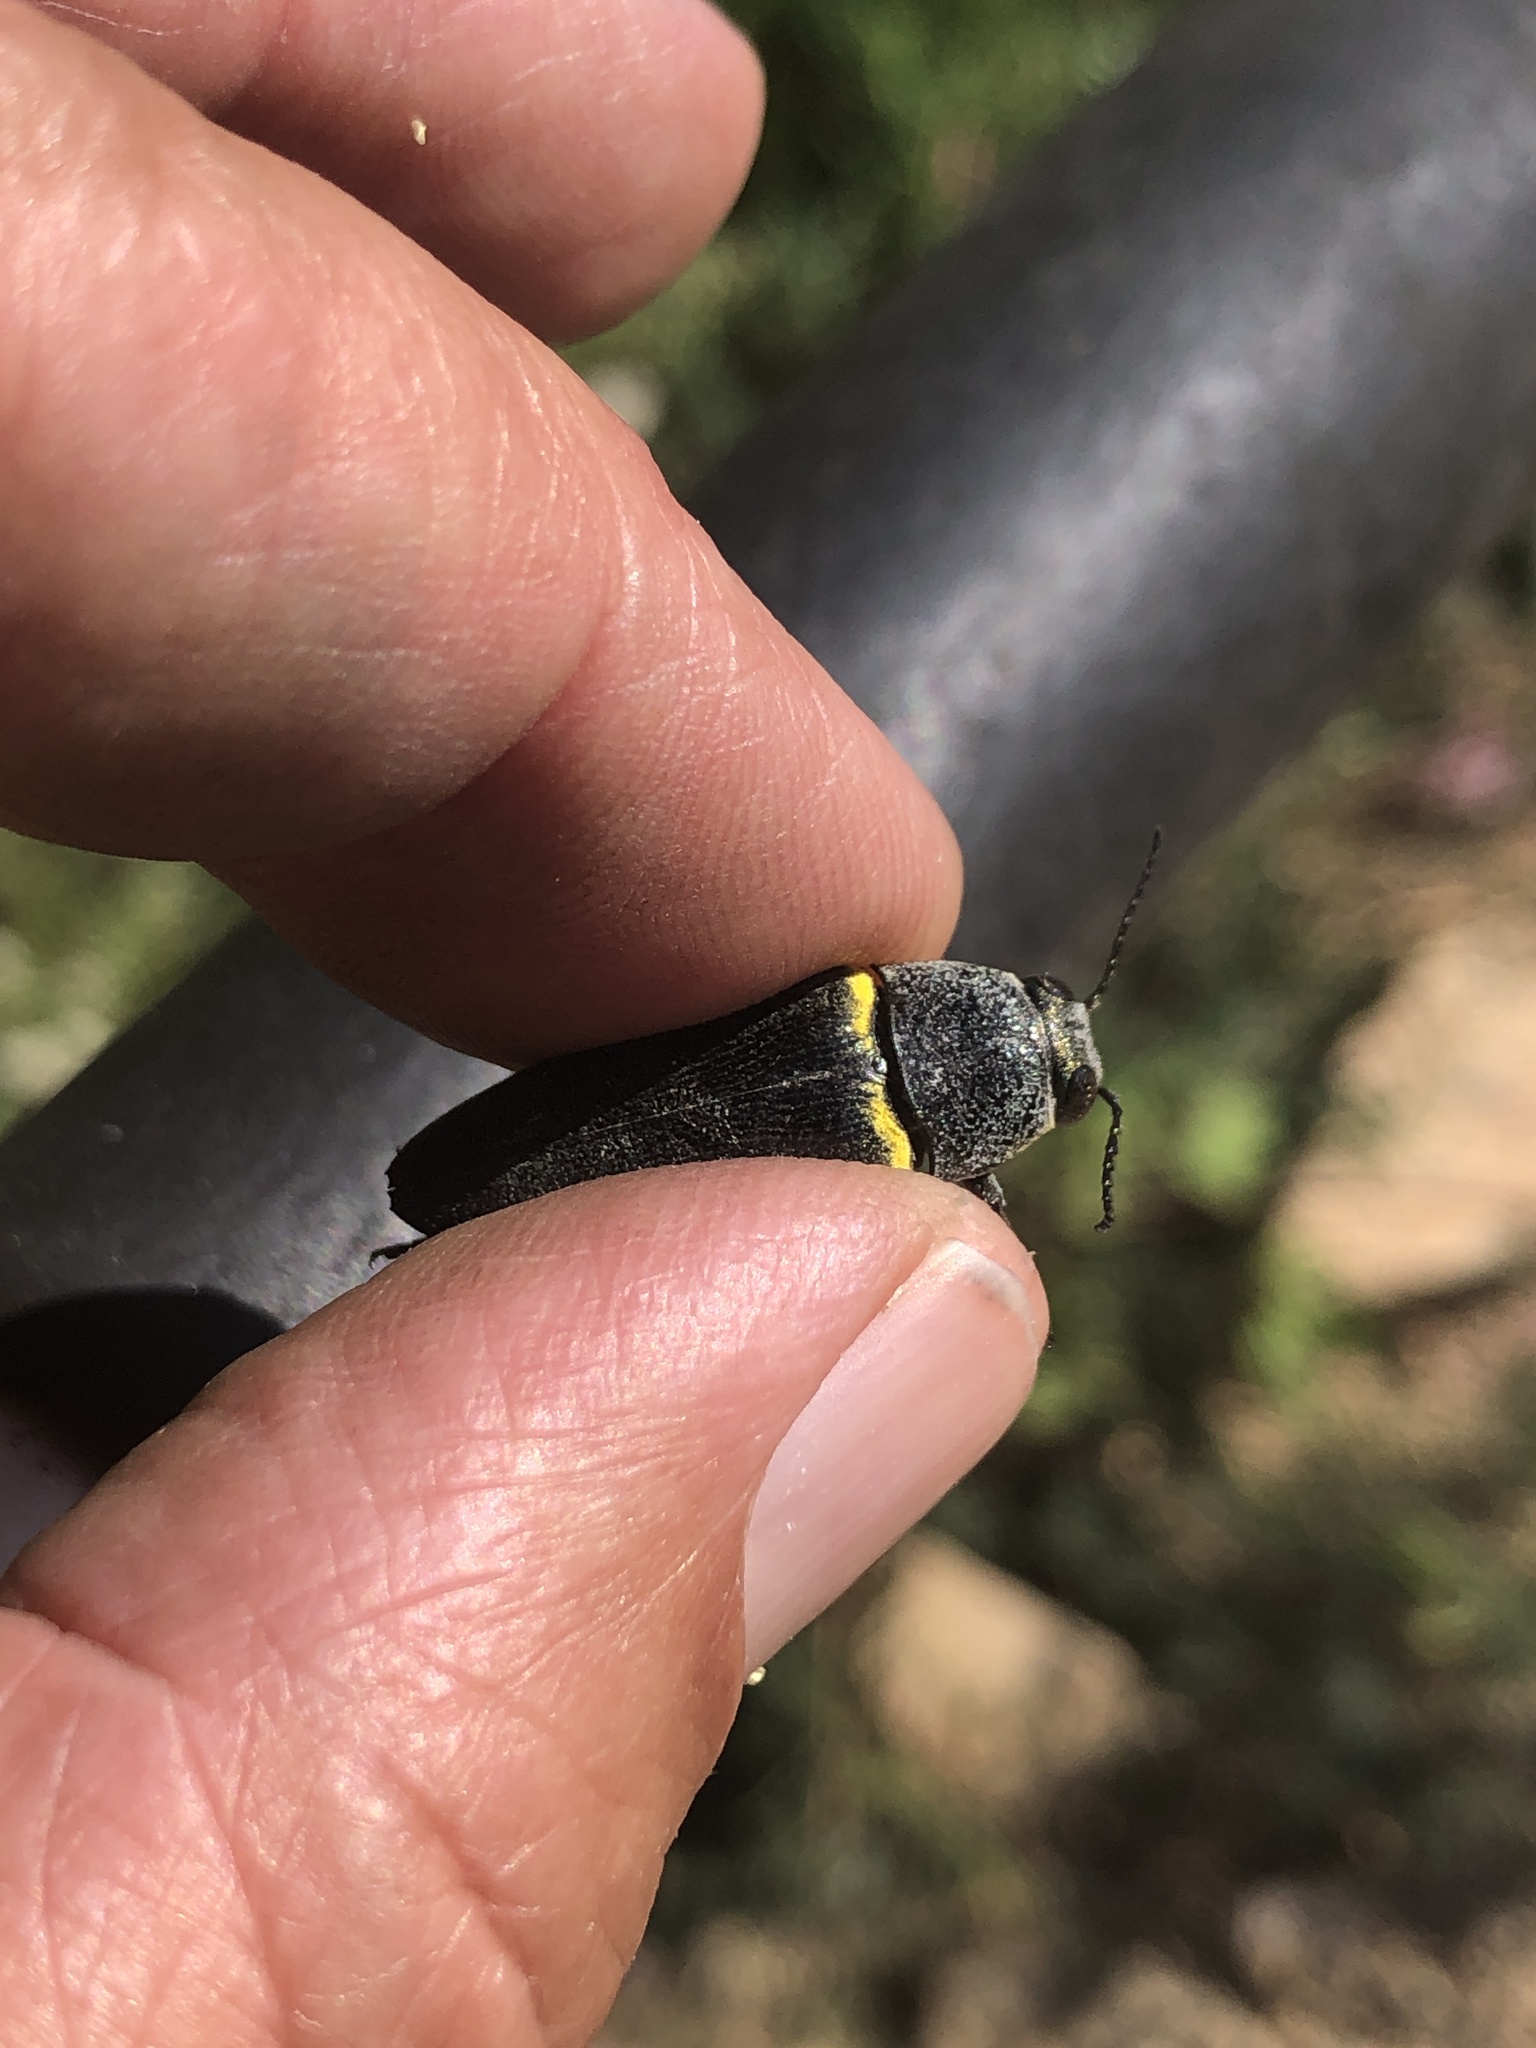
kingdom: Animalia
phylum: Arthropoda
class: Insecta
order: Coleoptera
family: Buprestidae
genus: Hippomelas
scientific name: Hippomelas planicauda
